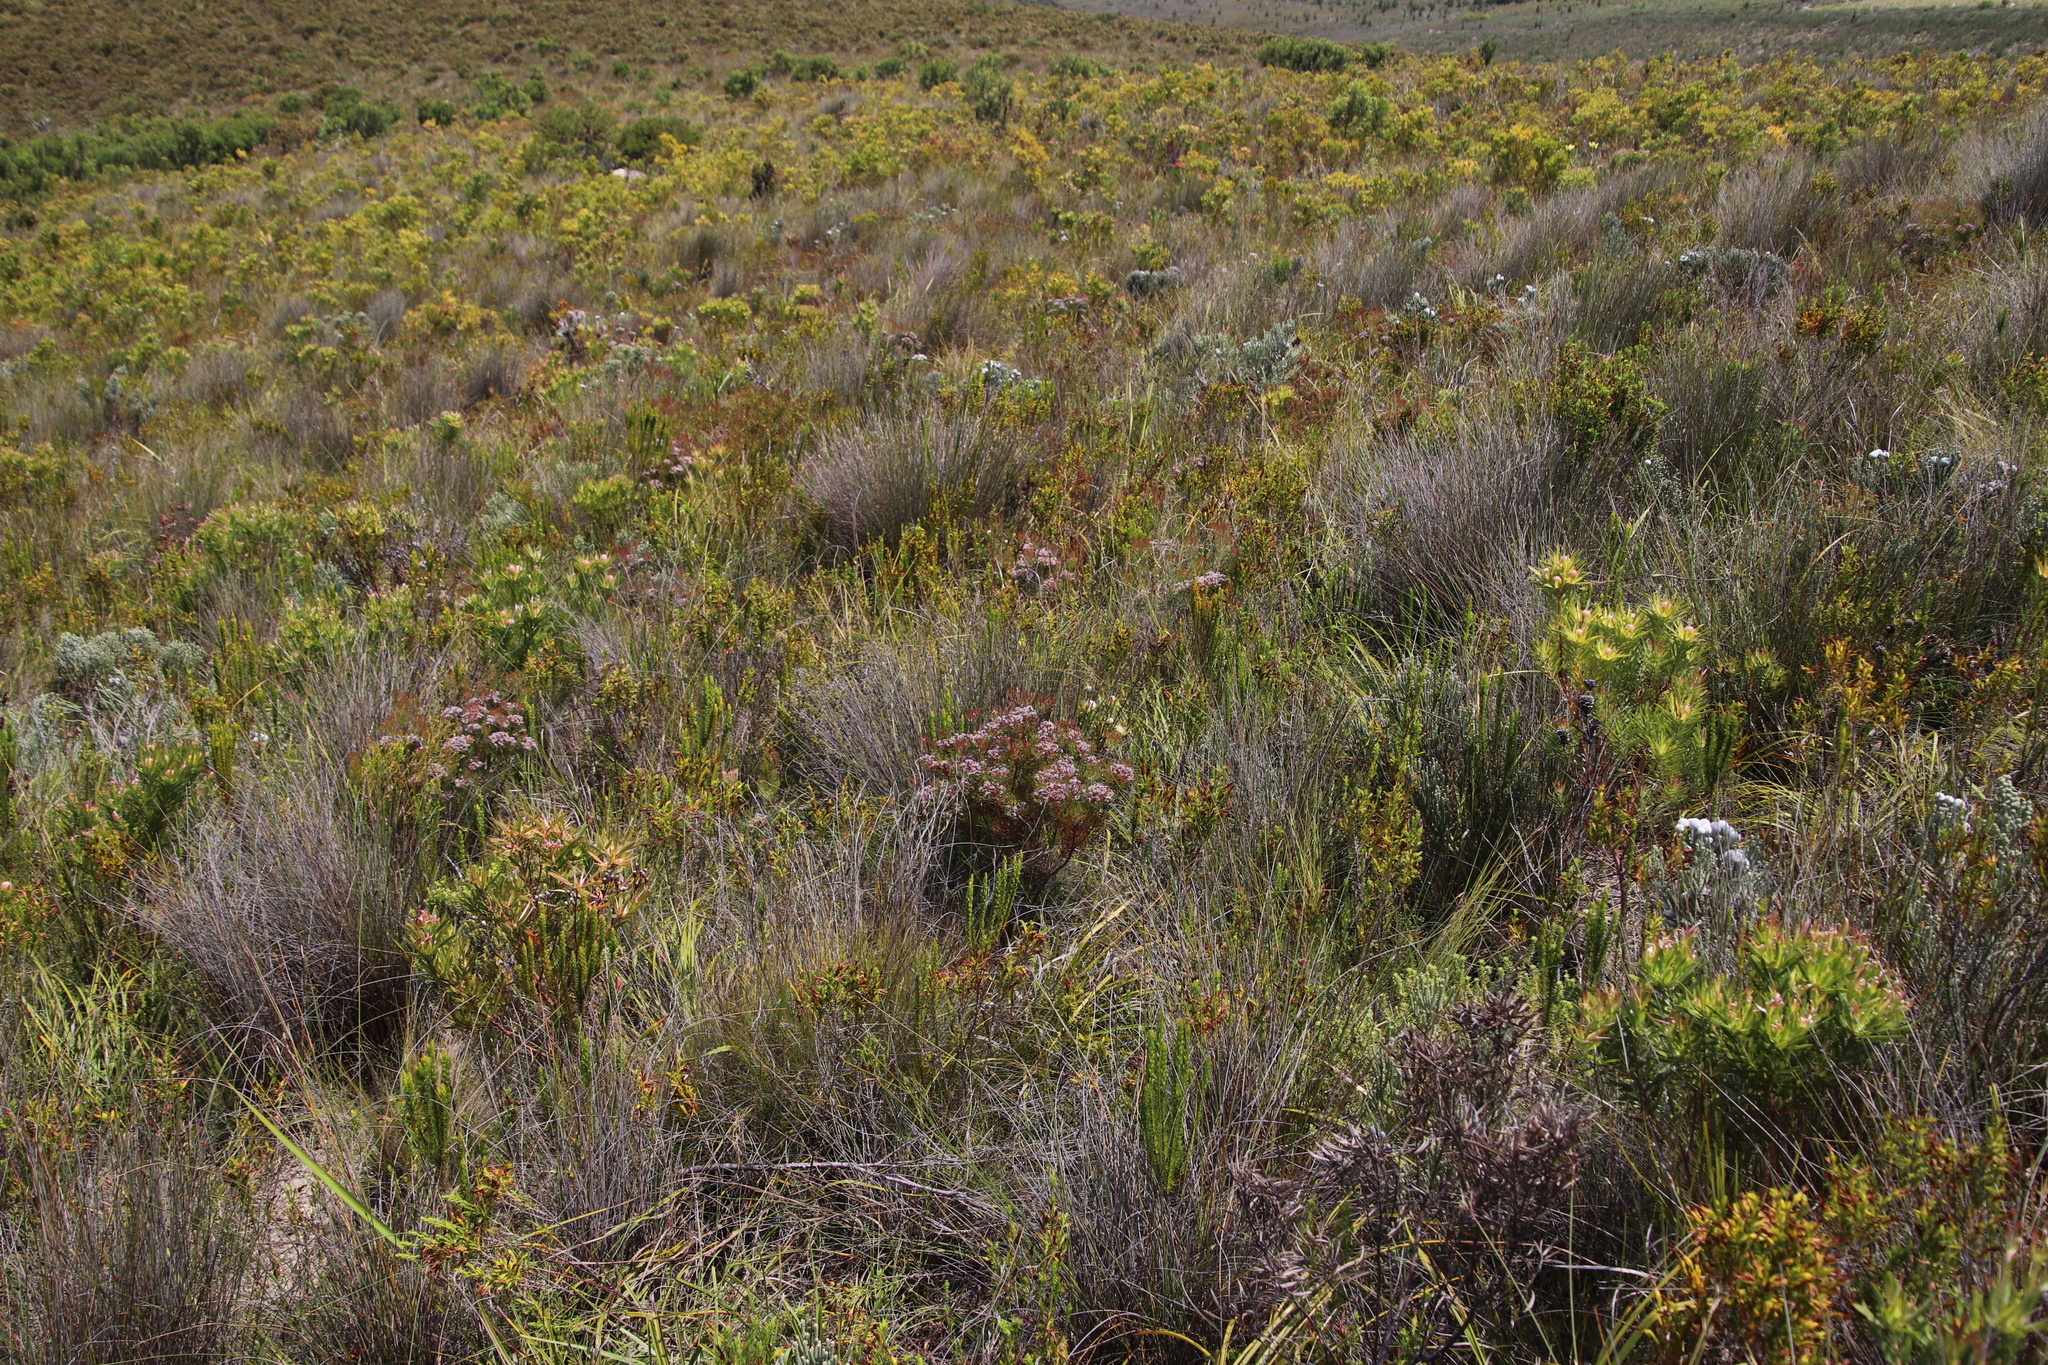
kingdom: Plantae
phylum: Tracheophyta
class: Magnoliopsida
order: Proteales
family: Proteaceae
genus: Serruria
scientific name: Serruria fasciflora
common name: Common pin spiderhead
